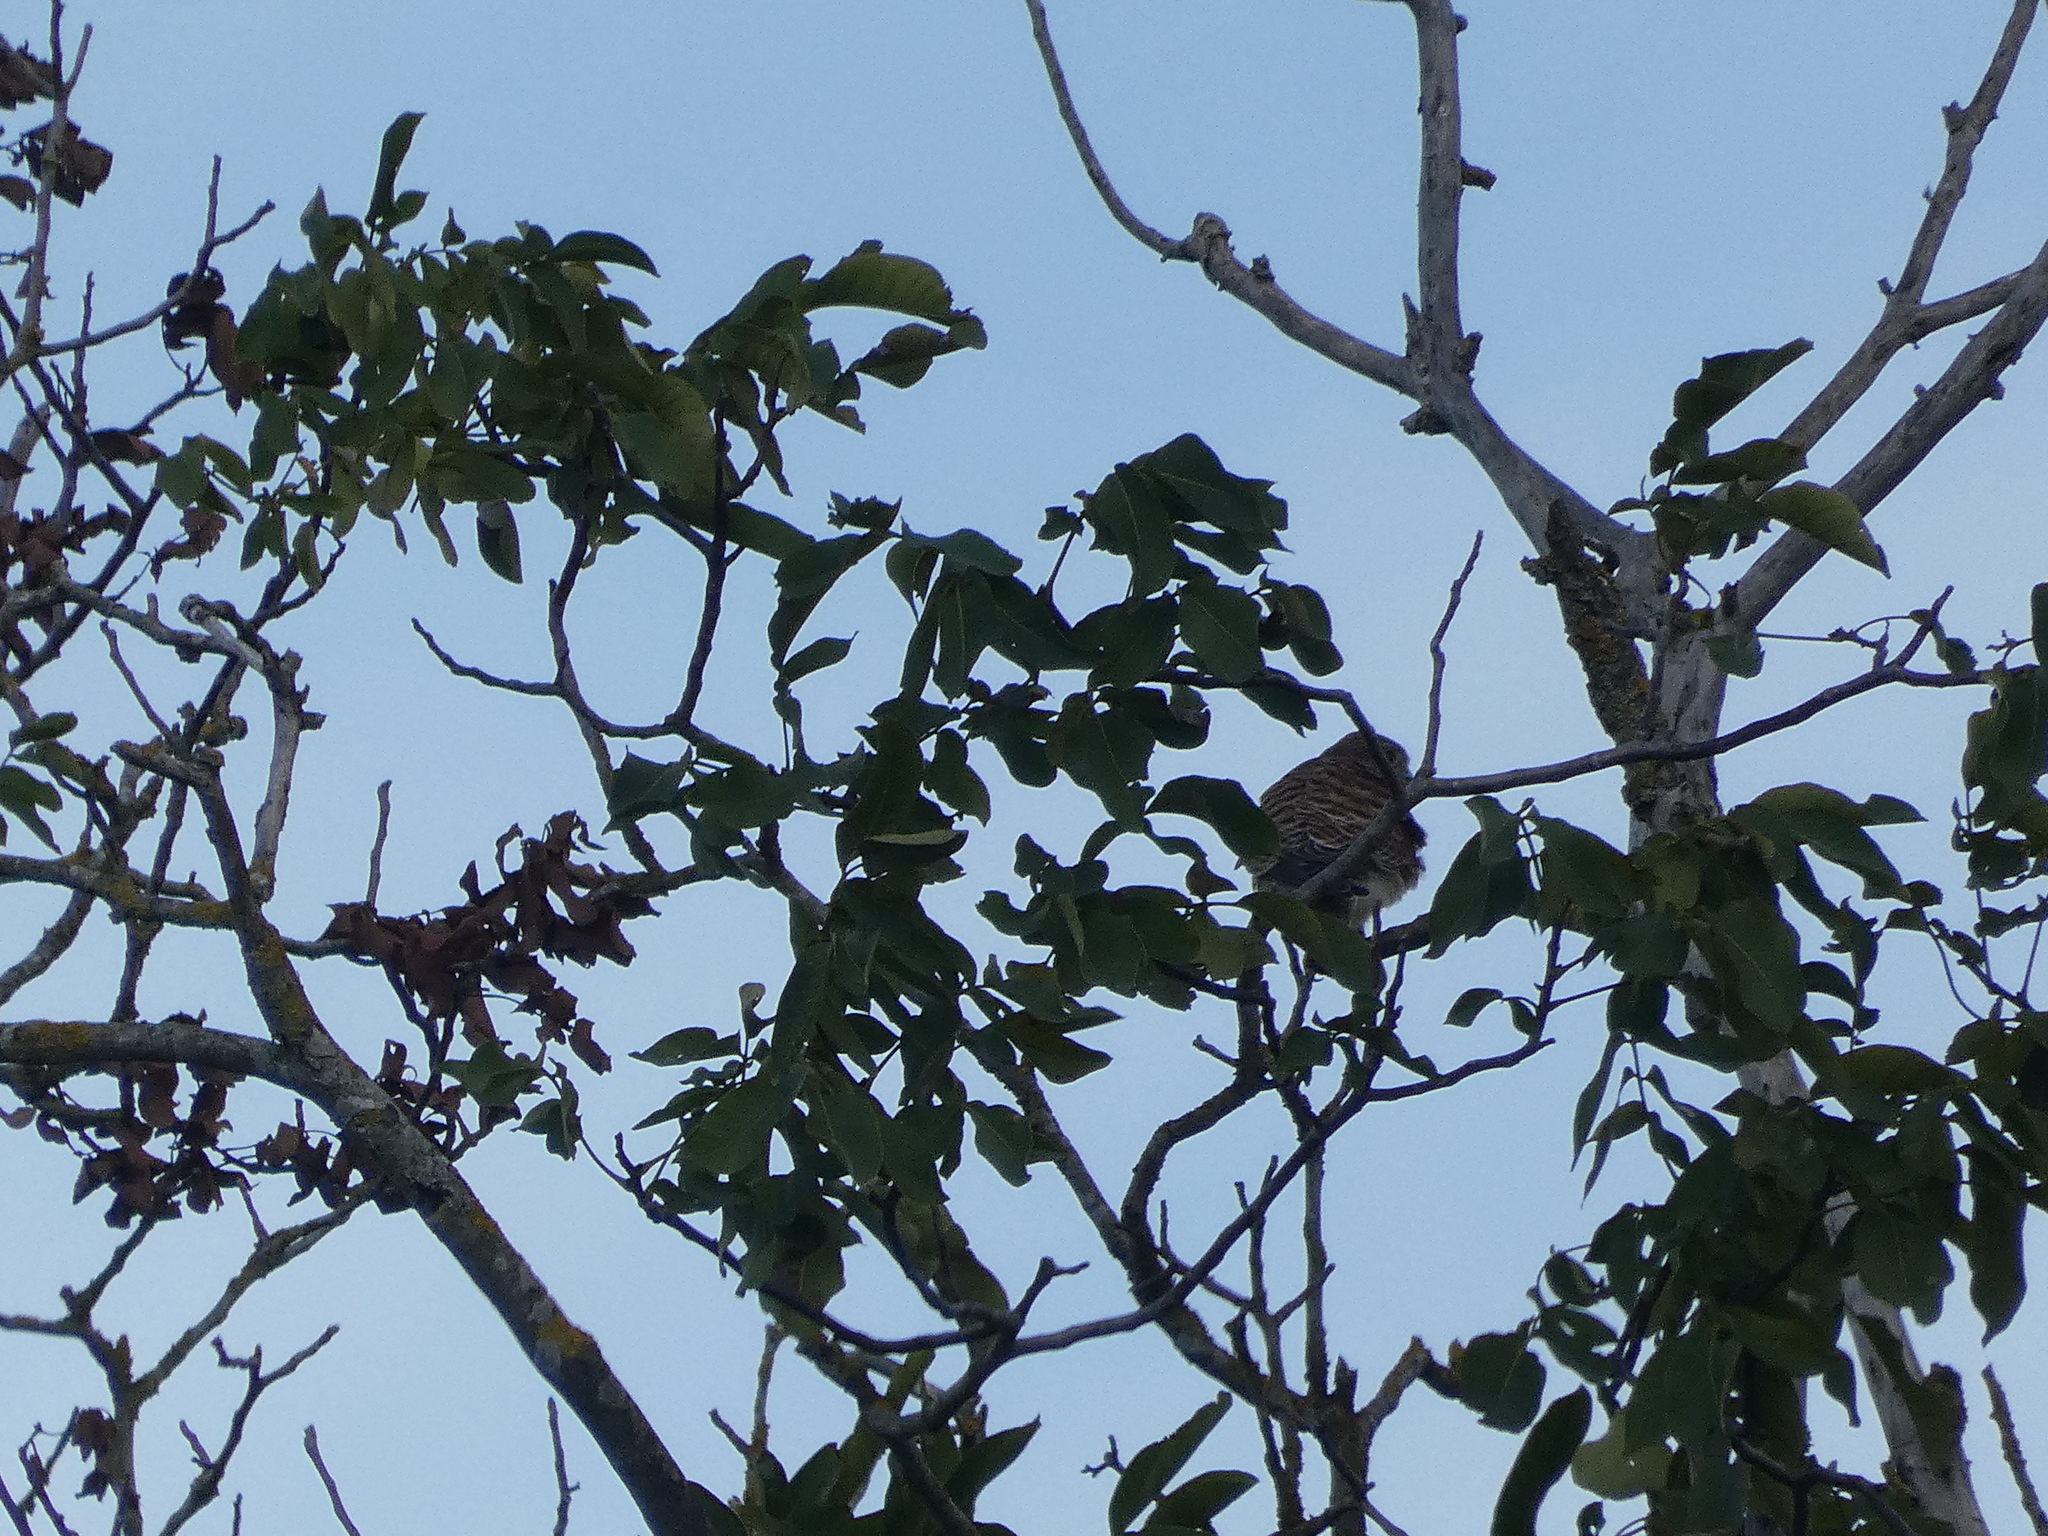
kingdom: Animalia
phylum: Chordata
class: Aves
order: Falconiformes
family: Falconidae
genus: Falco
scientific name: Falco tinnunculus
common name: Common kestrel
